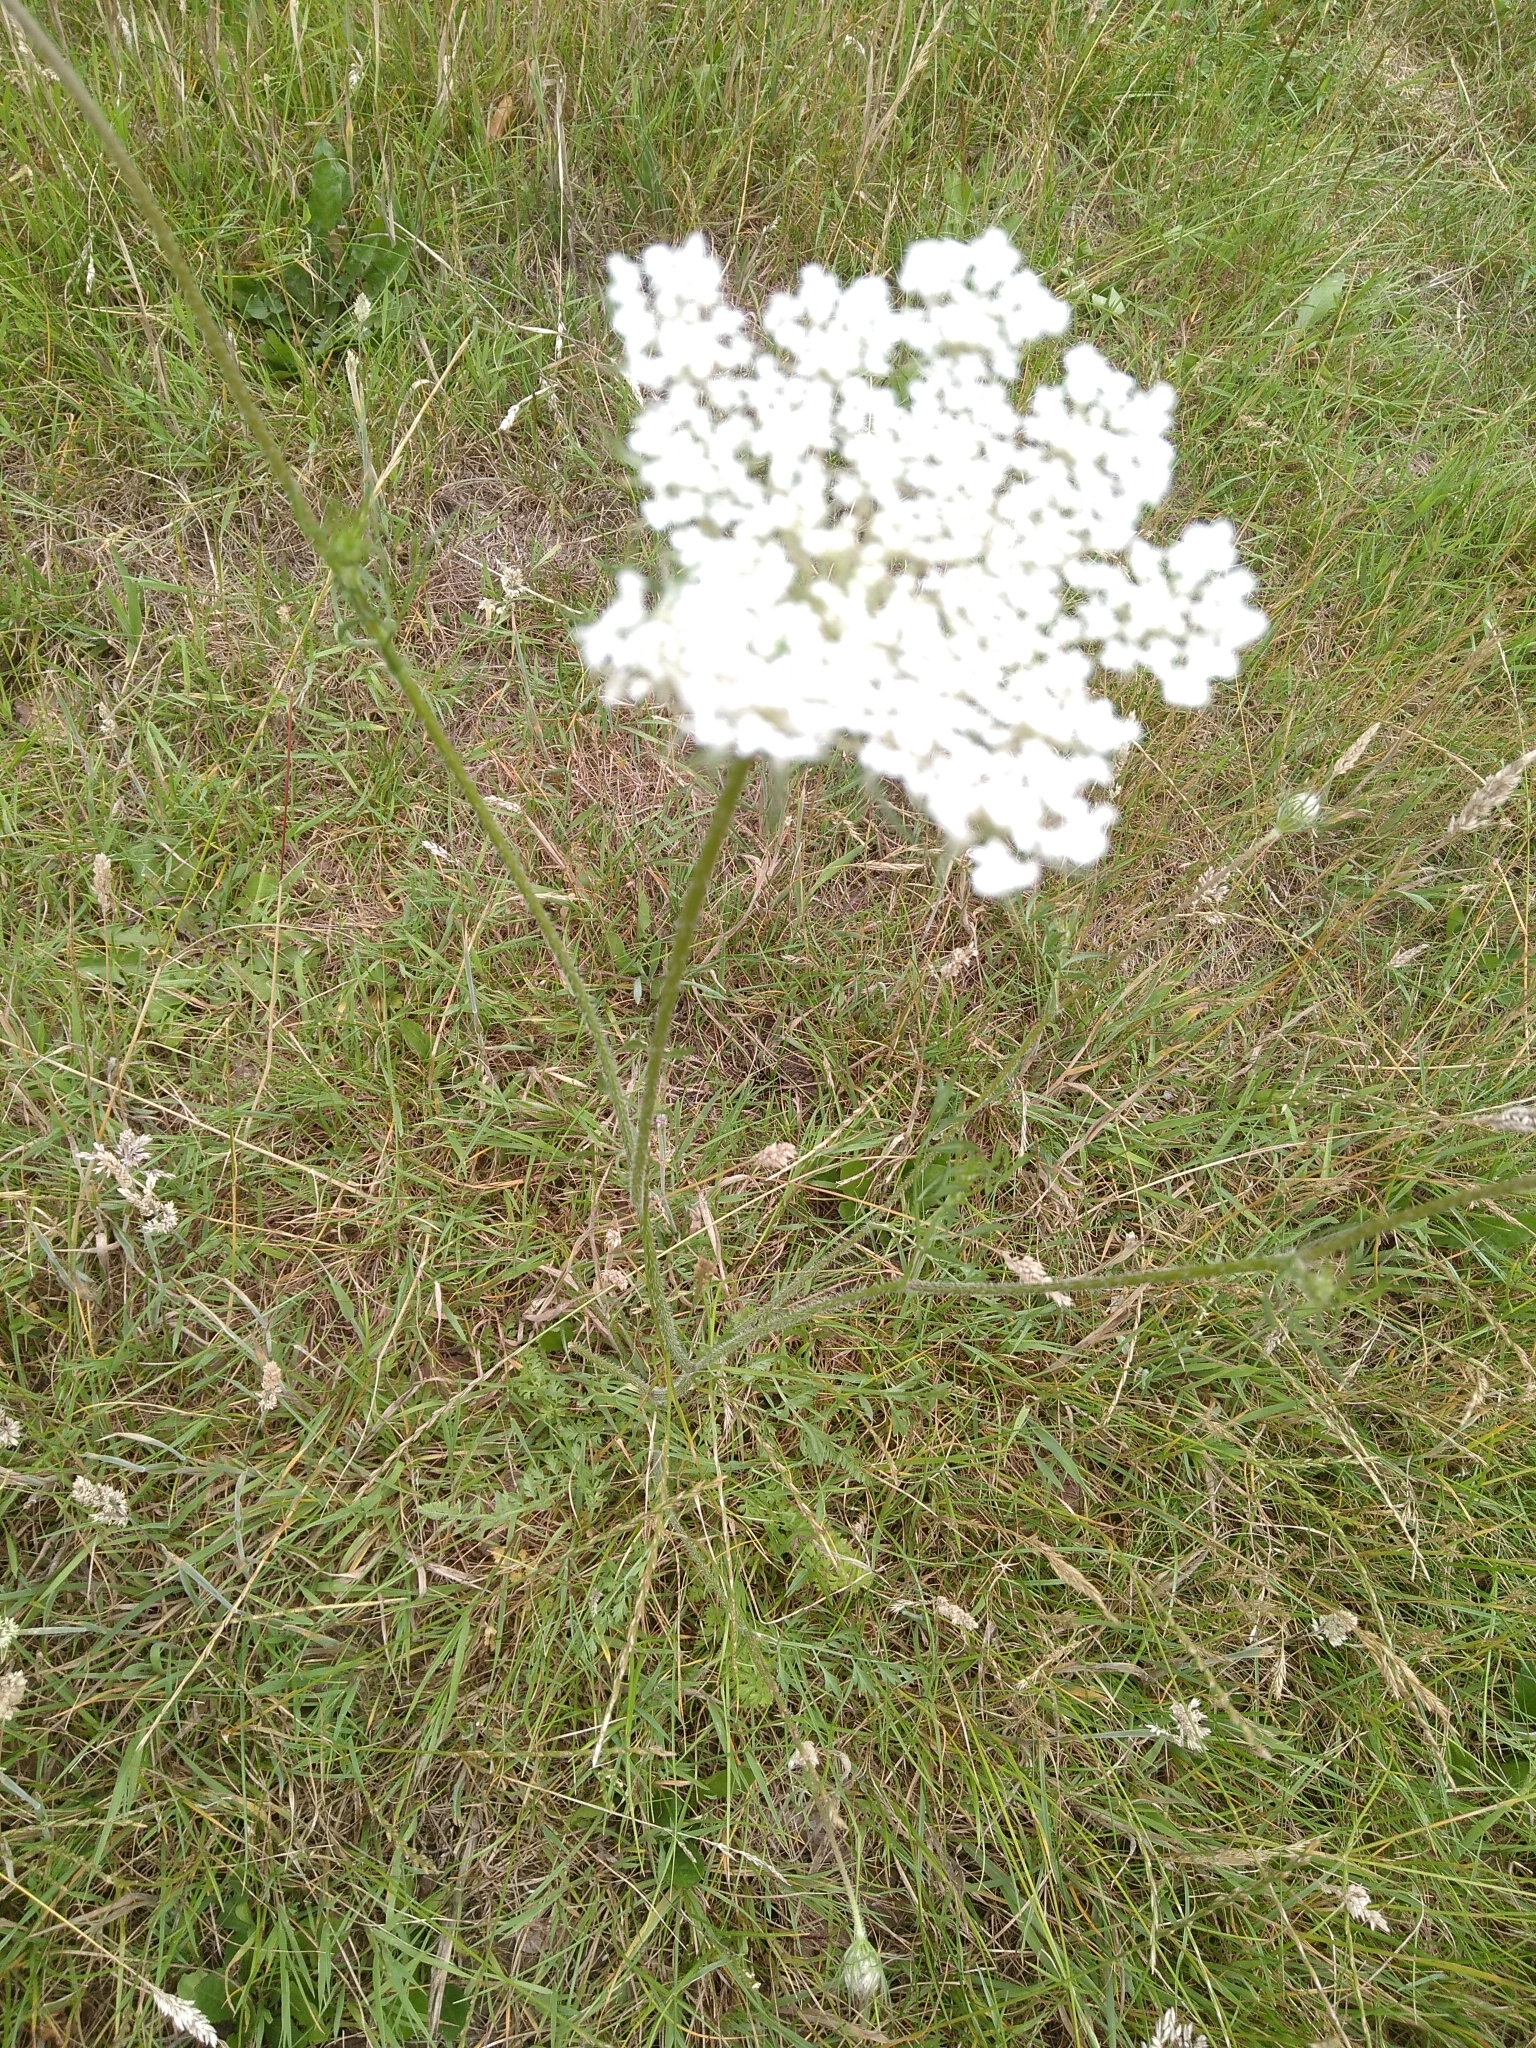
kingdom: Plantae
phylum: Tracheophyta
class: Magnoliopsida
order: Apiales
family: Apiaceae
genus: Daucus
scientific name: Daucus carota
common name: Wild carrot
